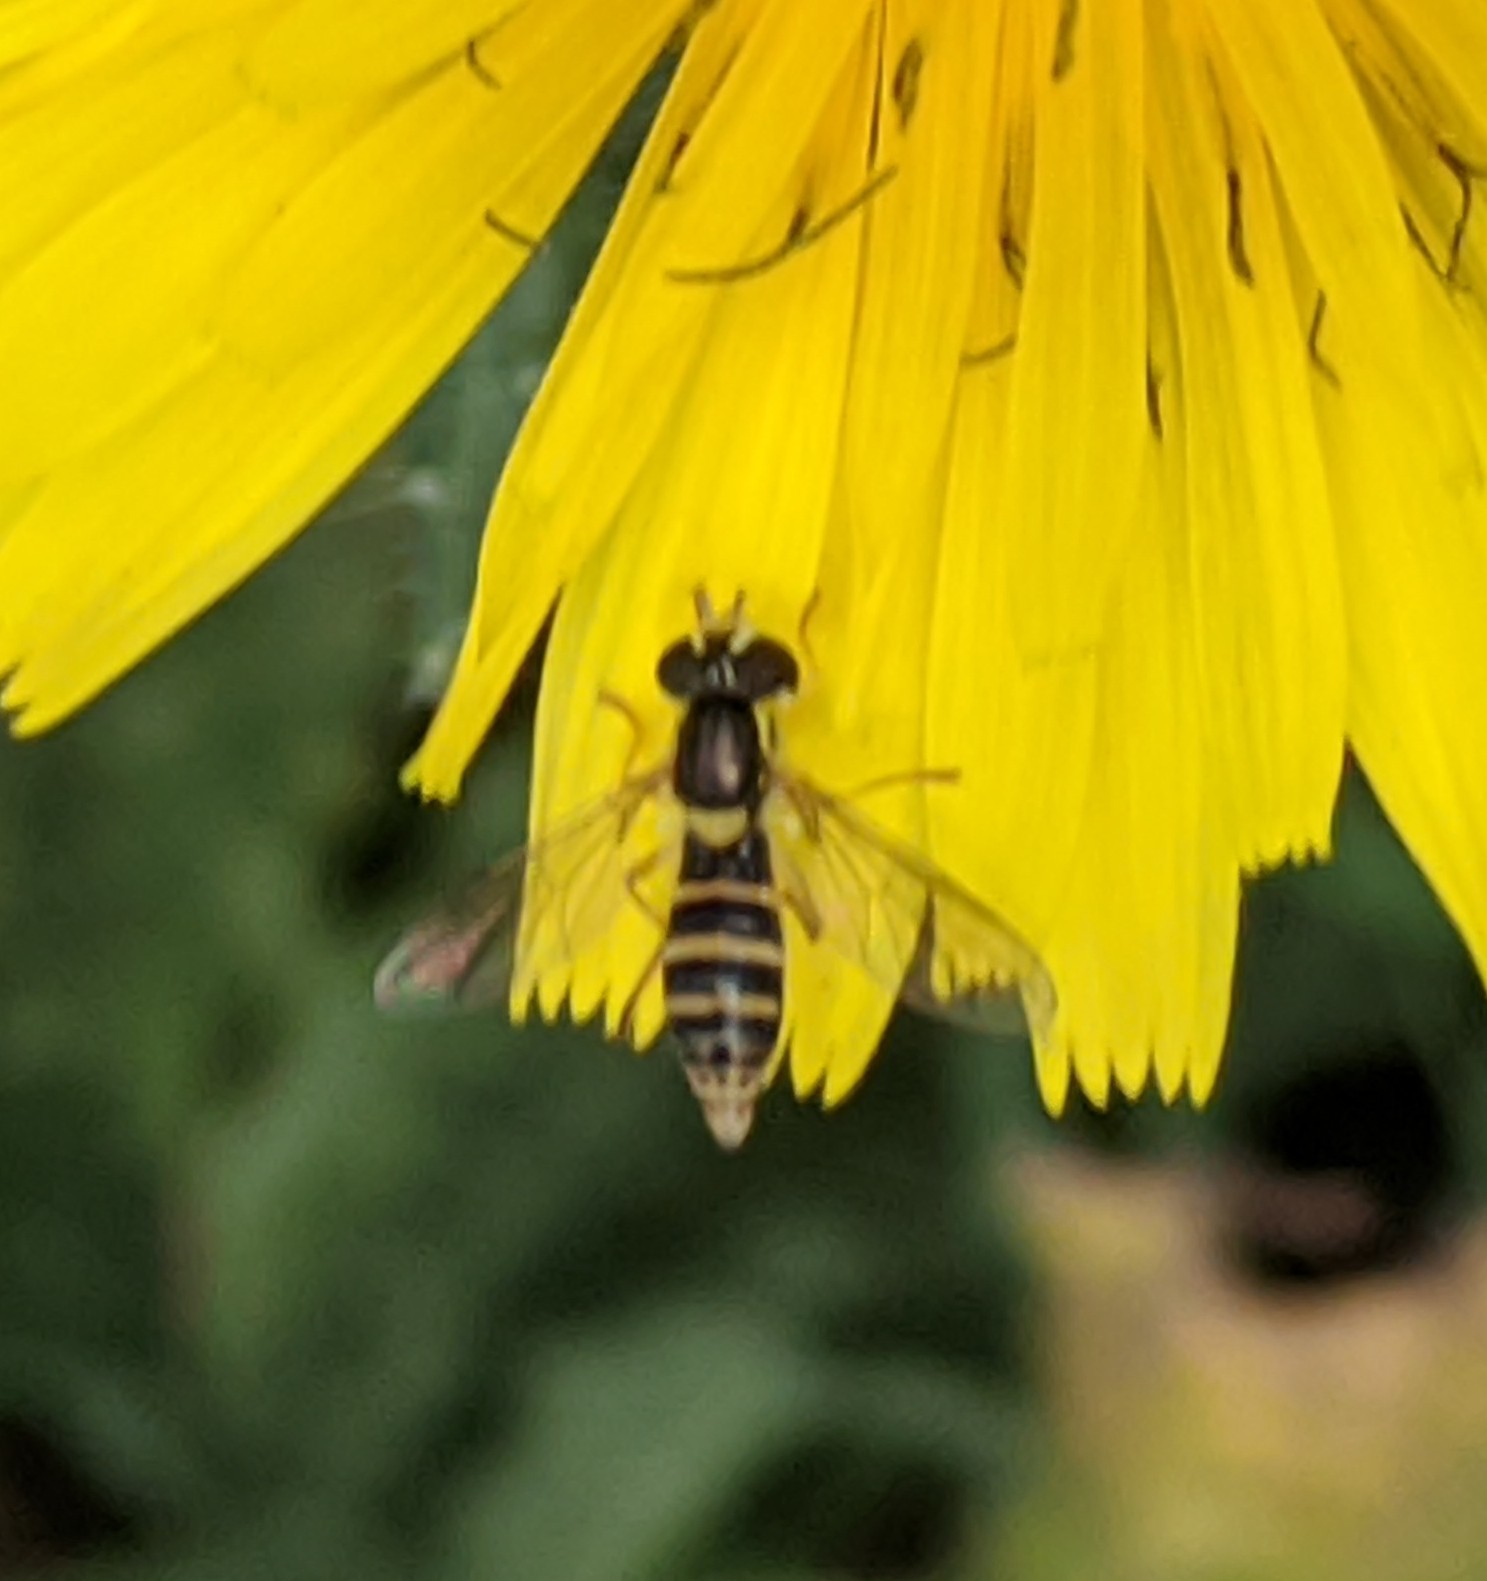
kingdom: Animalia
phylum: Arthropoda
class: Insecta
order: Diptera
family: Syrphidae
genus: Sphaerophoria
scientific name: Sphaerophoria sulphuripes
